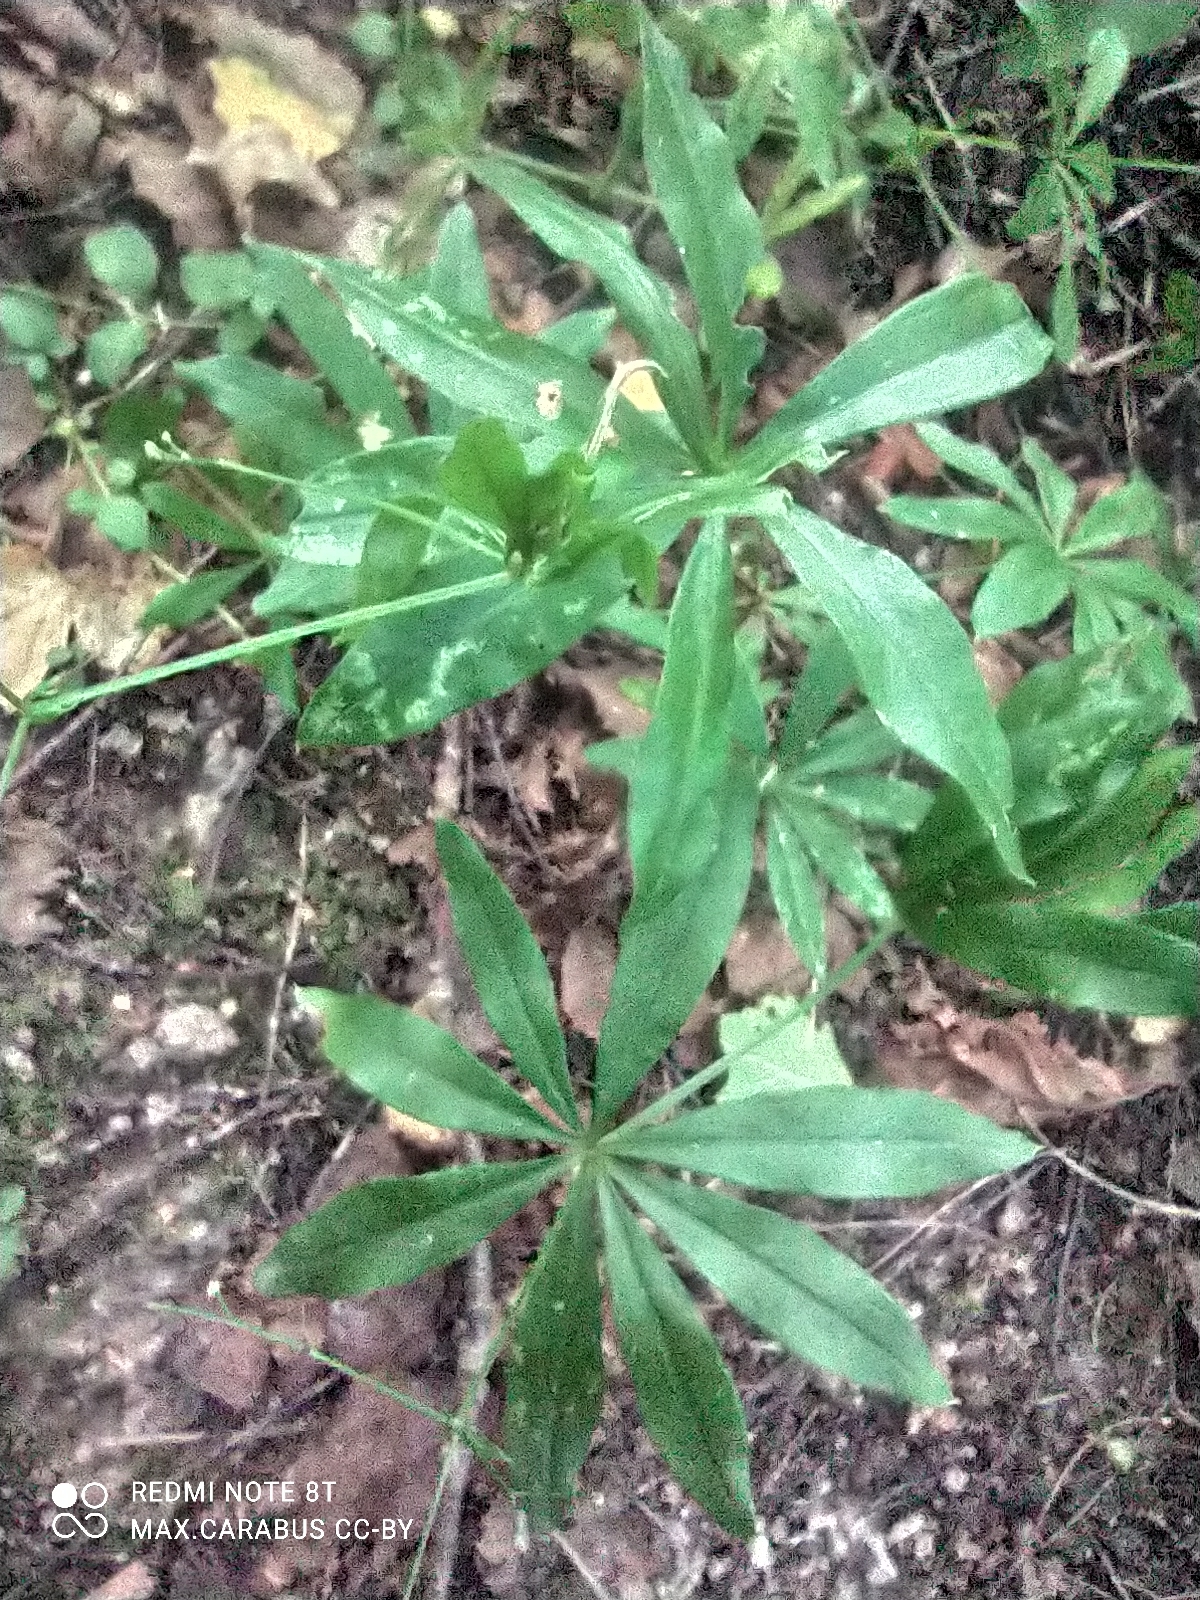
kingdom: Plantae
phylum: Tracheophyta
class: Magnoliopsida
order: Gentianales
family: Rubiaceae
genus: Galium
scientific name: Galium odoratum
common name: Sweet woodruff
